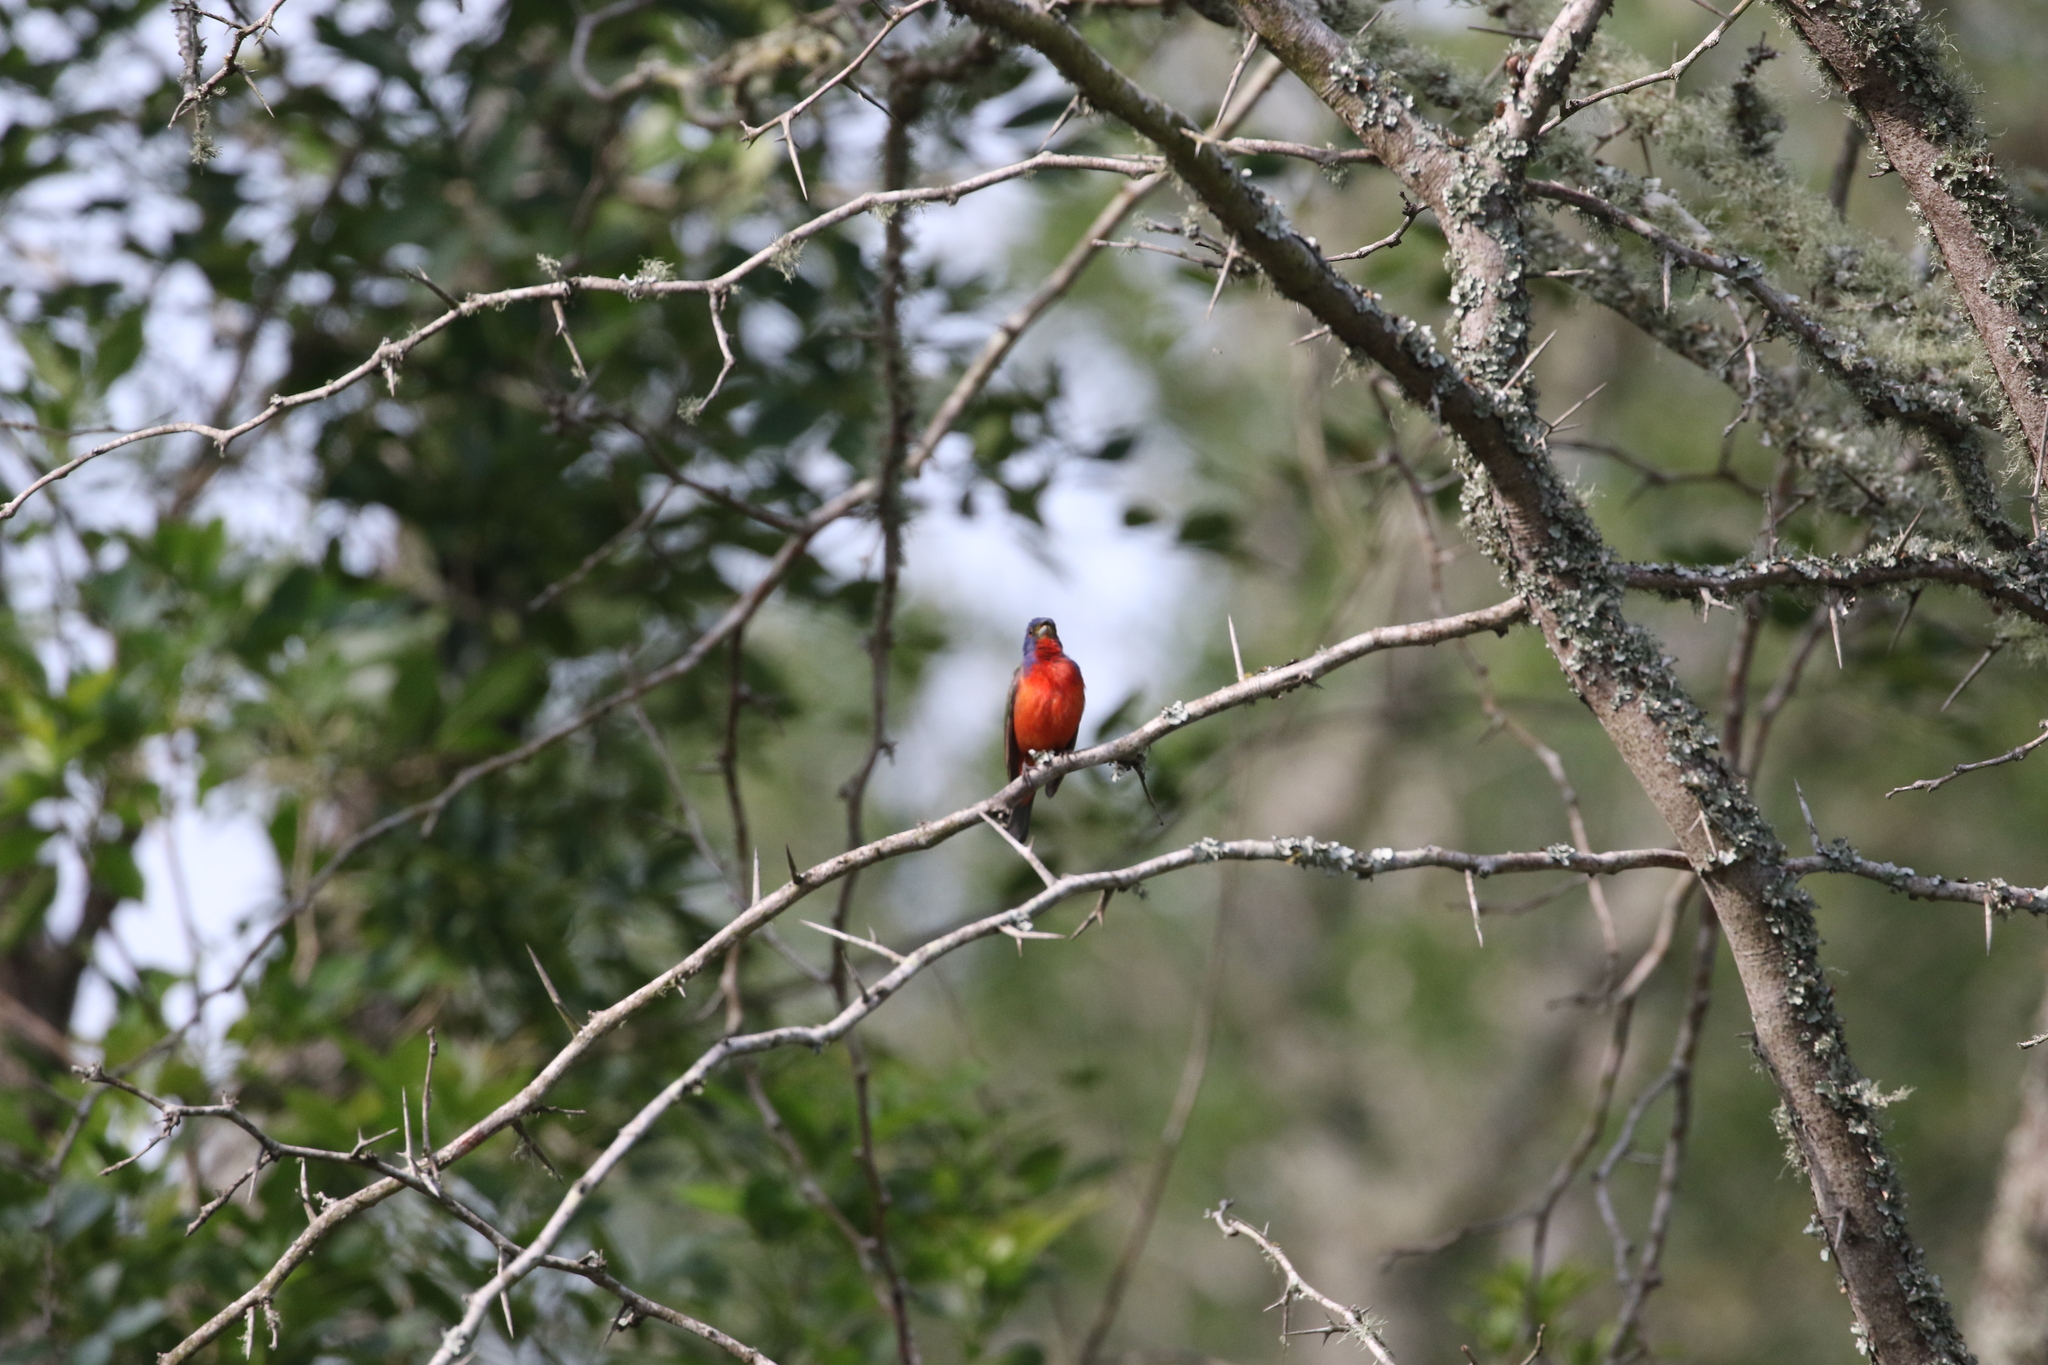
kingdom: Animalia
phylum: Chordata
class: Aves
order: Passeriformes
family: Cardinalidae
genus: Passerina
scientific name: Passerina ciris
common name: Painted bunting
